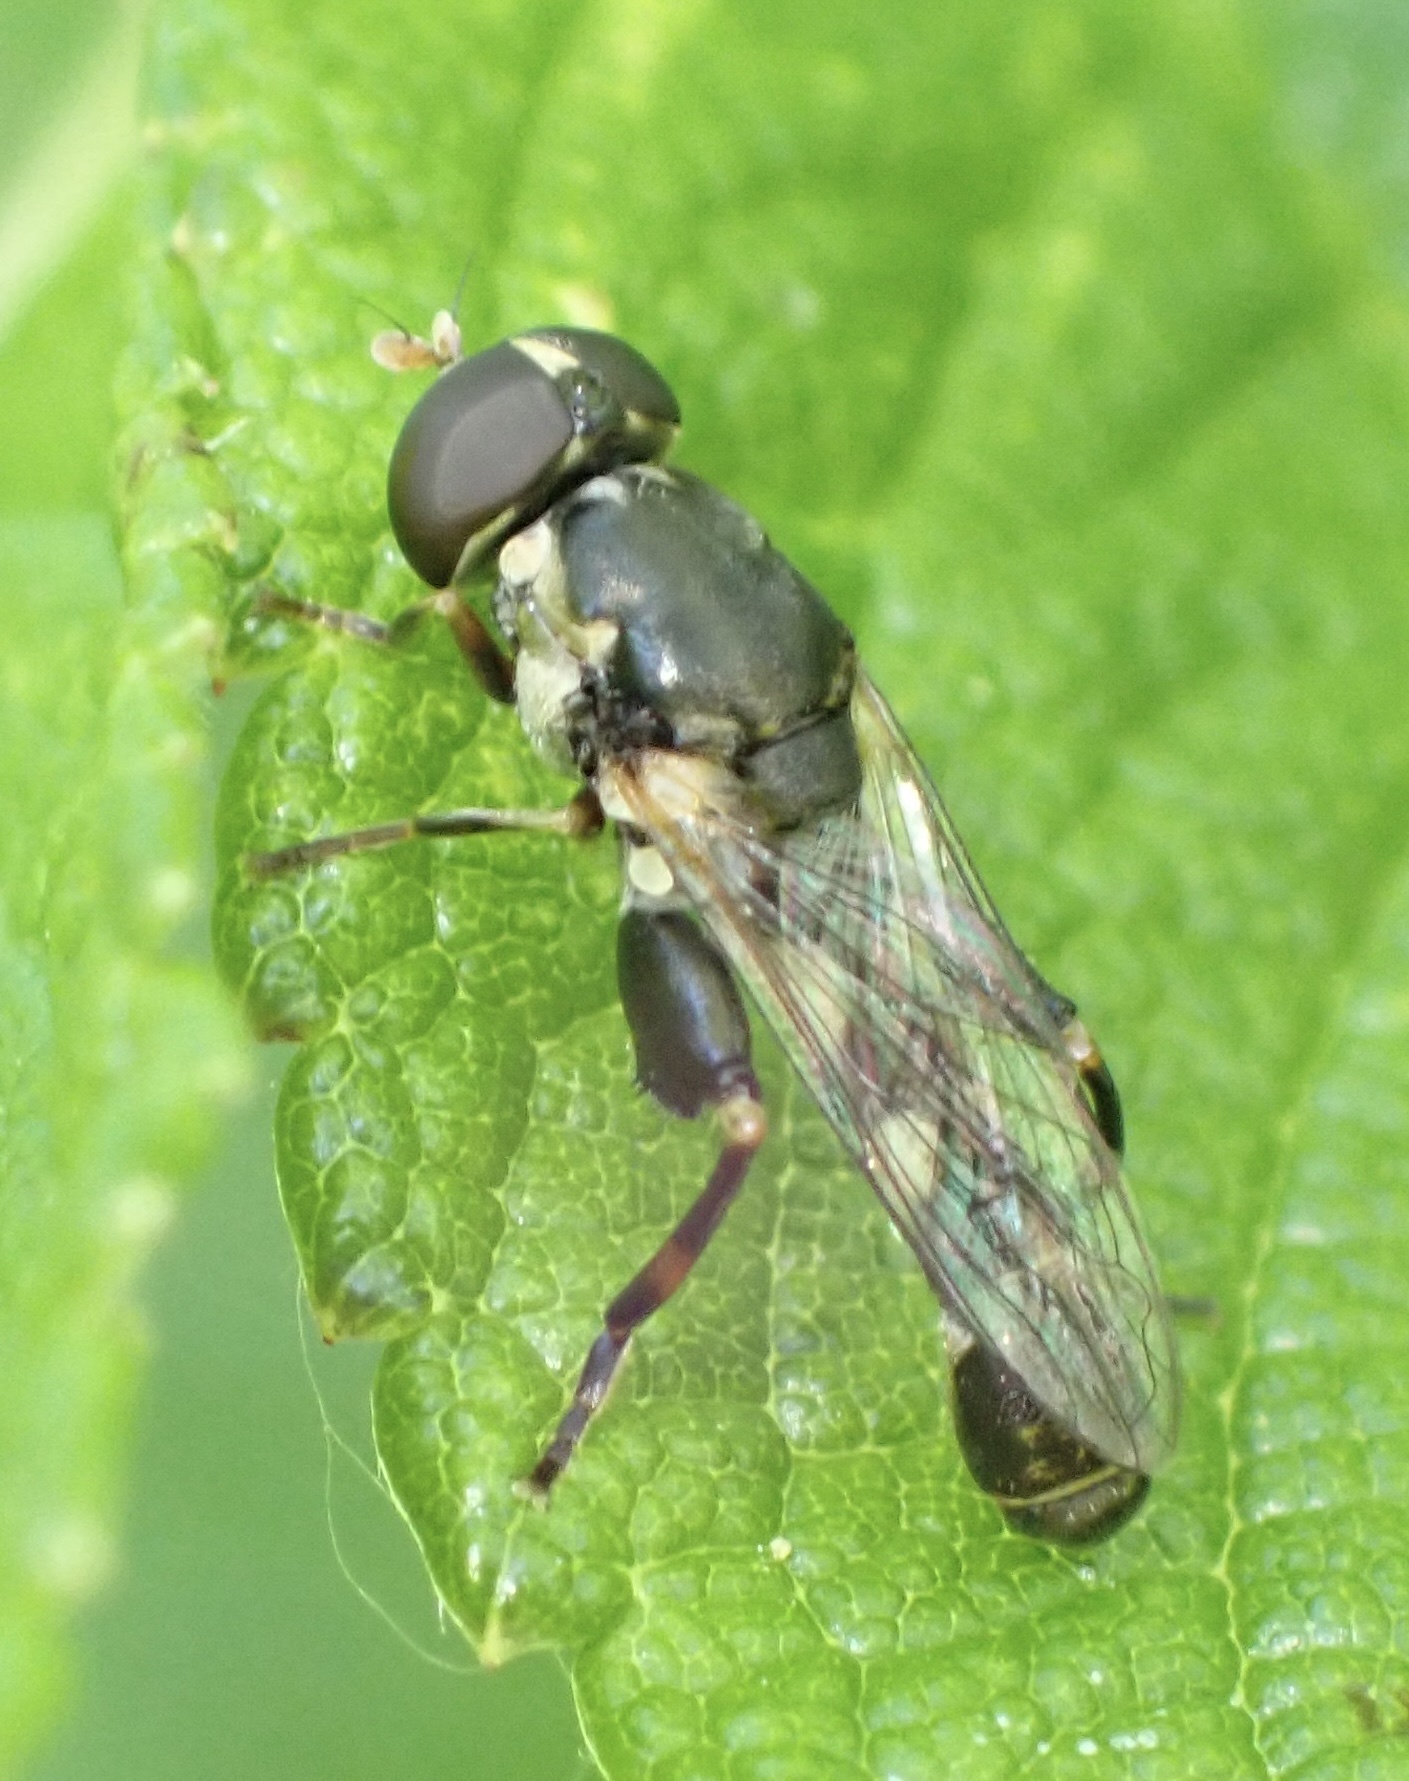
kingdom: Animalia
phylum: Arthropoda
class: Insecta
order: Diptera
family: Syrphidae
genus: Syritta
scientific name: Syritta pipiens
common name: Hover fly
